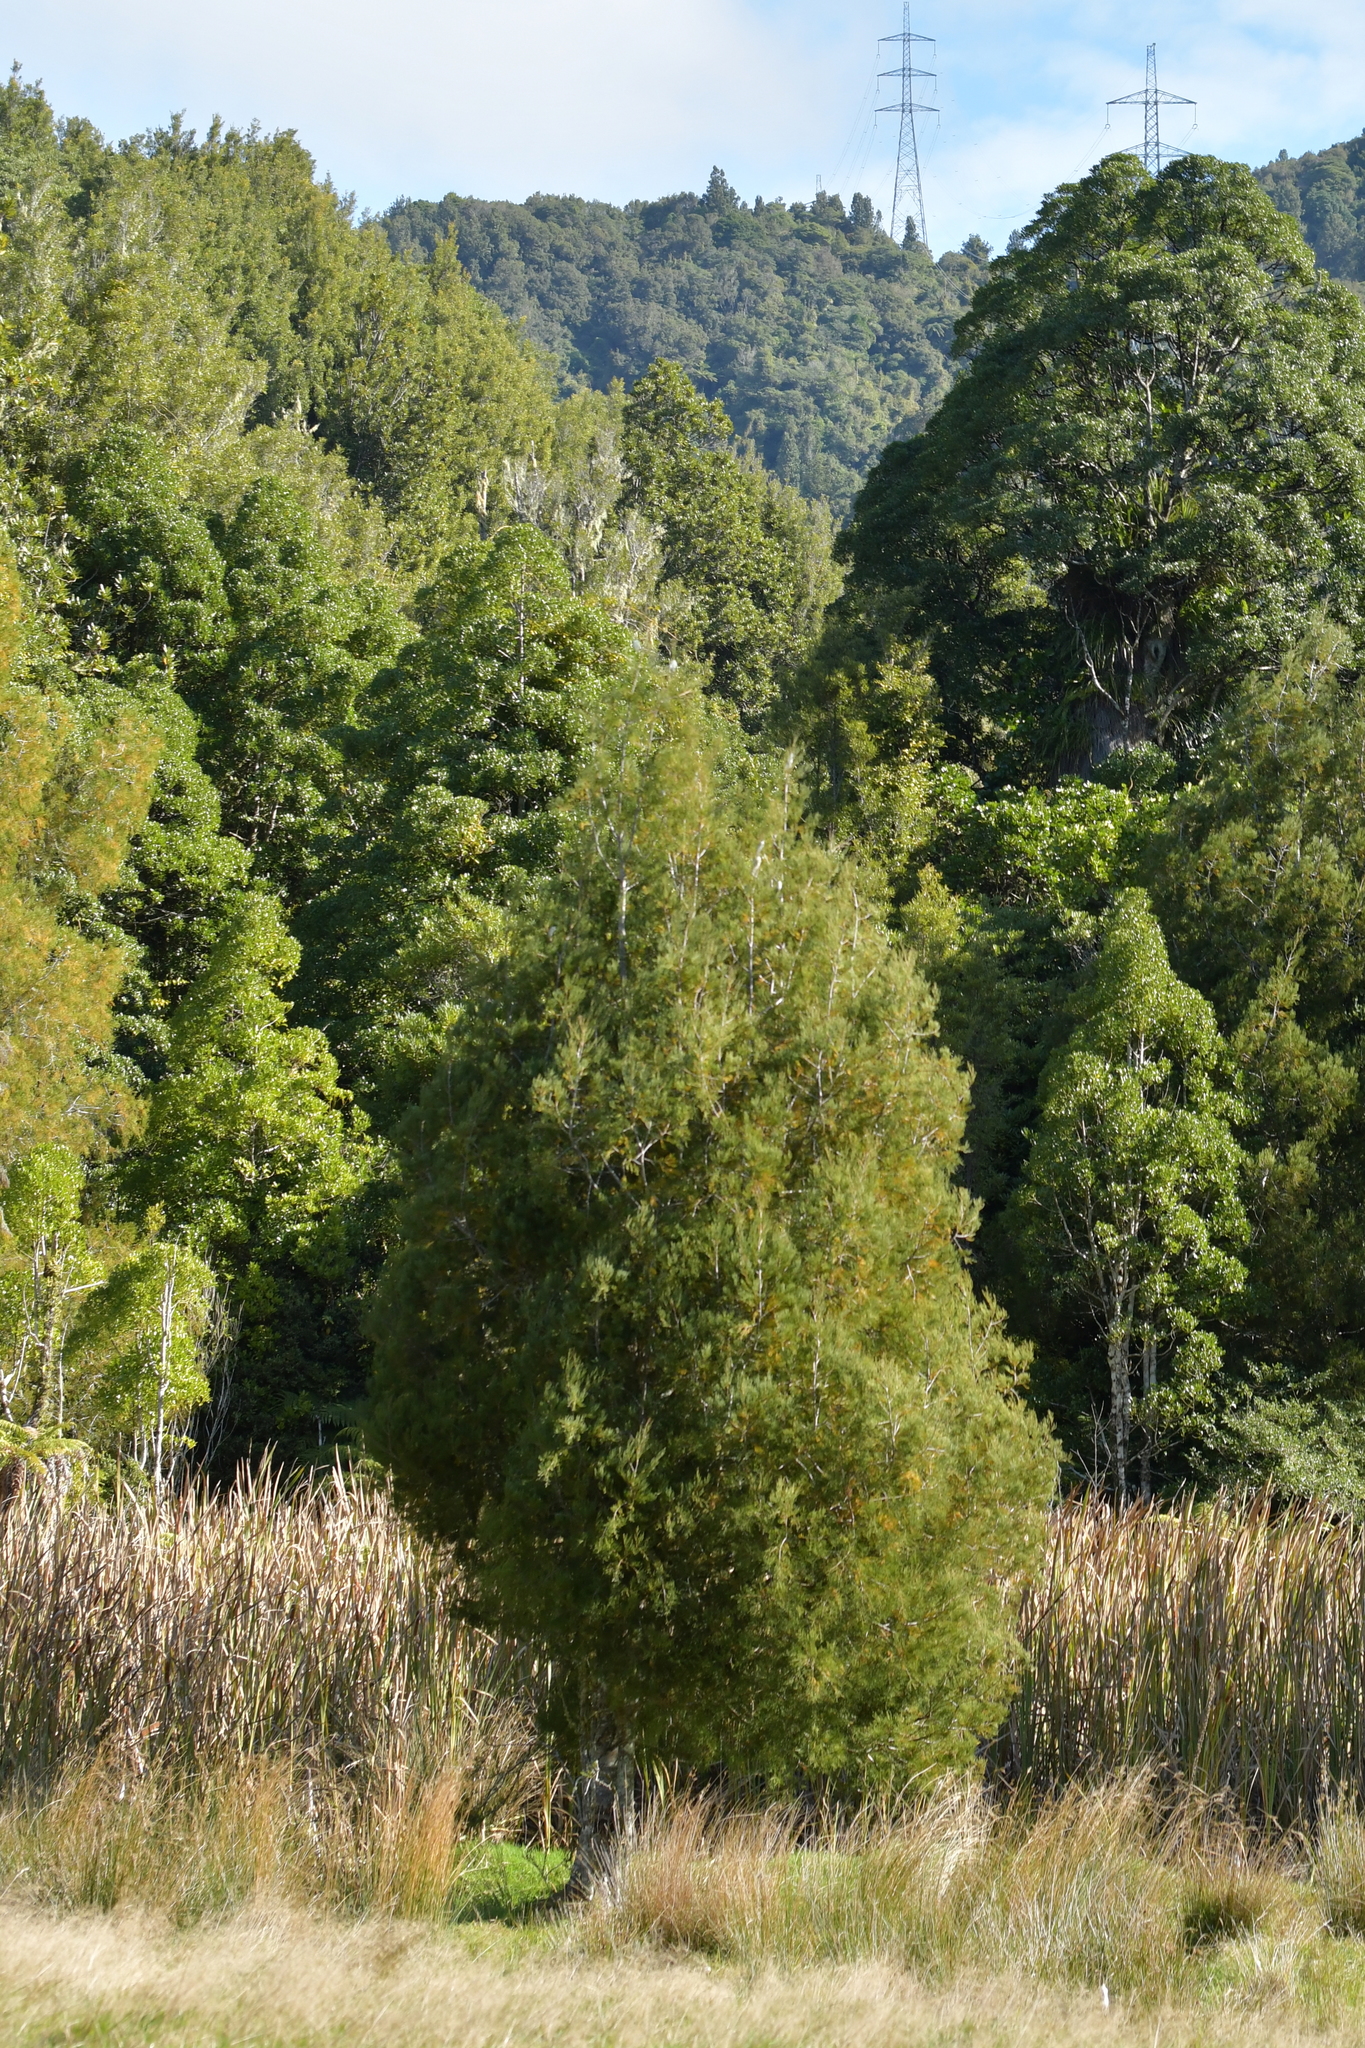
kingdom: Plantae
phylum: Tracheophyta
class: Pinopsida
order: Pinales
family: Podocarpaceae
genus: Dacrycarpus
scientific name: Dacrycarpus dacrydioides
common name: White pine
